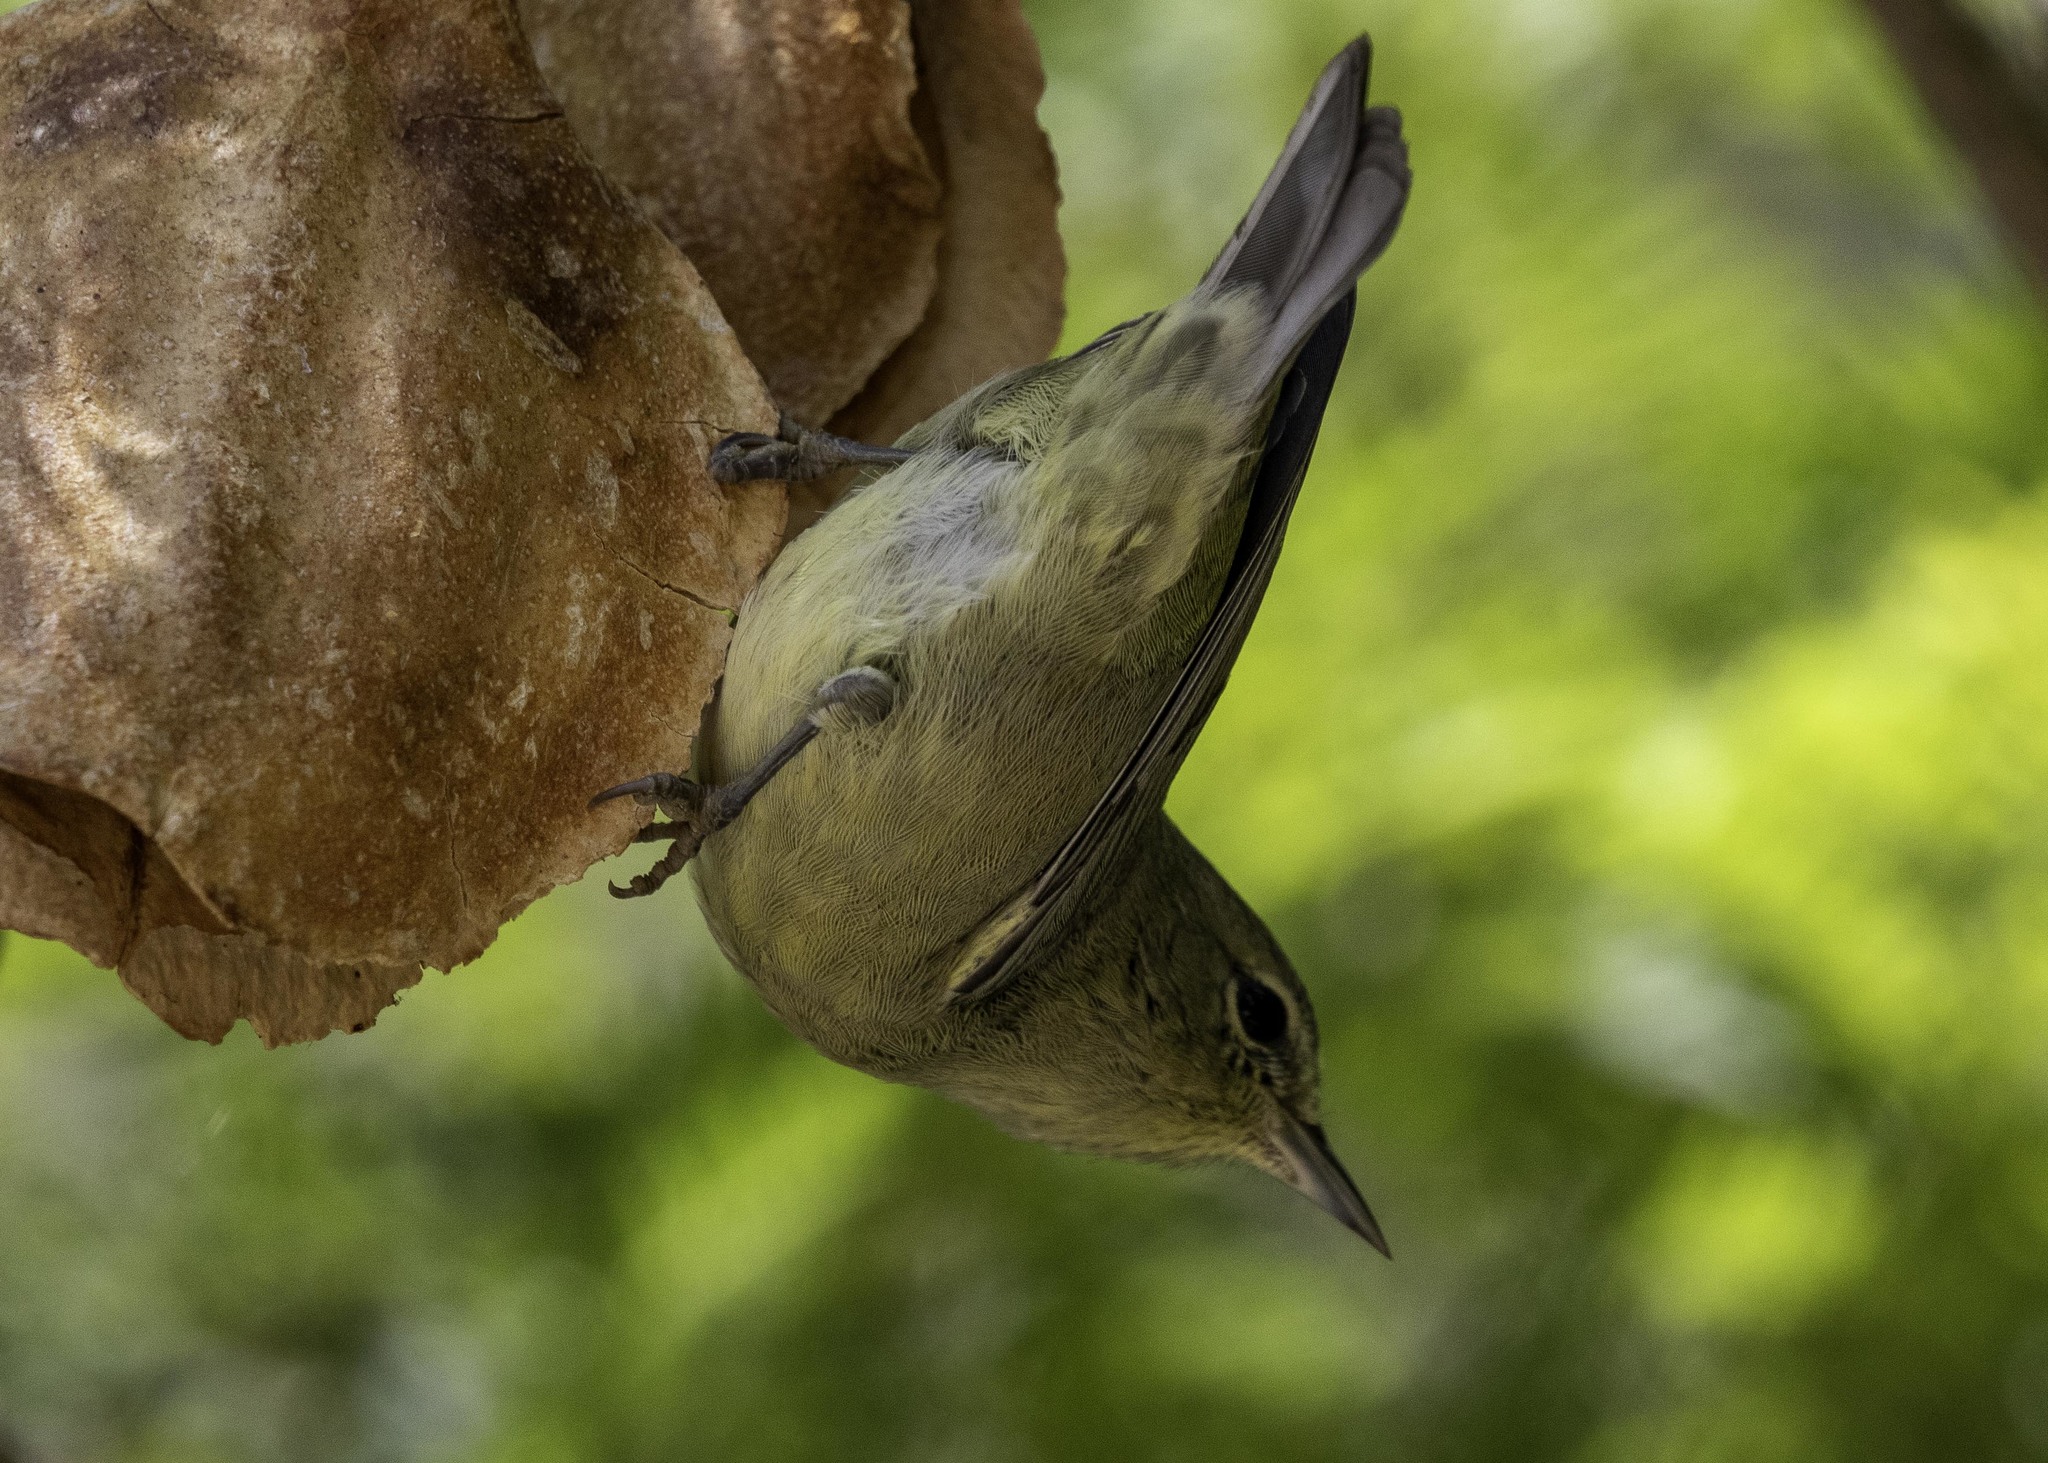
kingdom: Animalia
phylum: Chordata
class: Aves
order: Passeriformes
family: Parulidae
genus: Leiothlypis
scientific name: Leiothlypis celata
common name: Orange-crowned warbler
